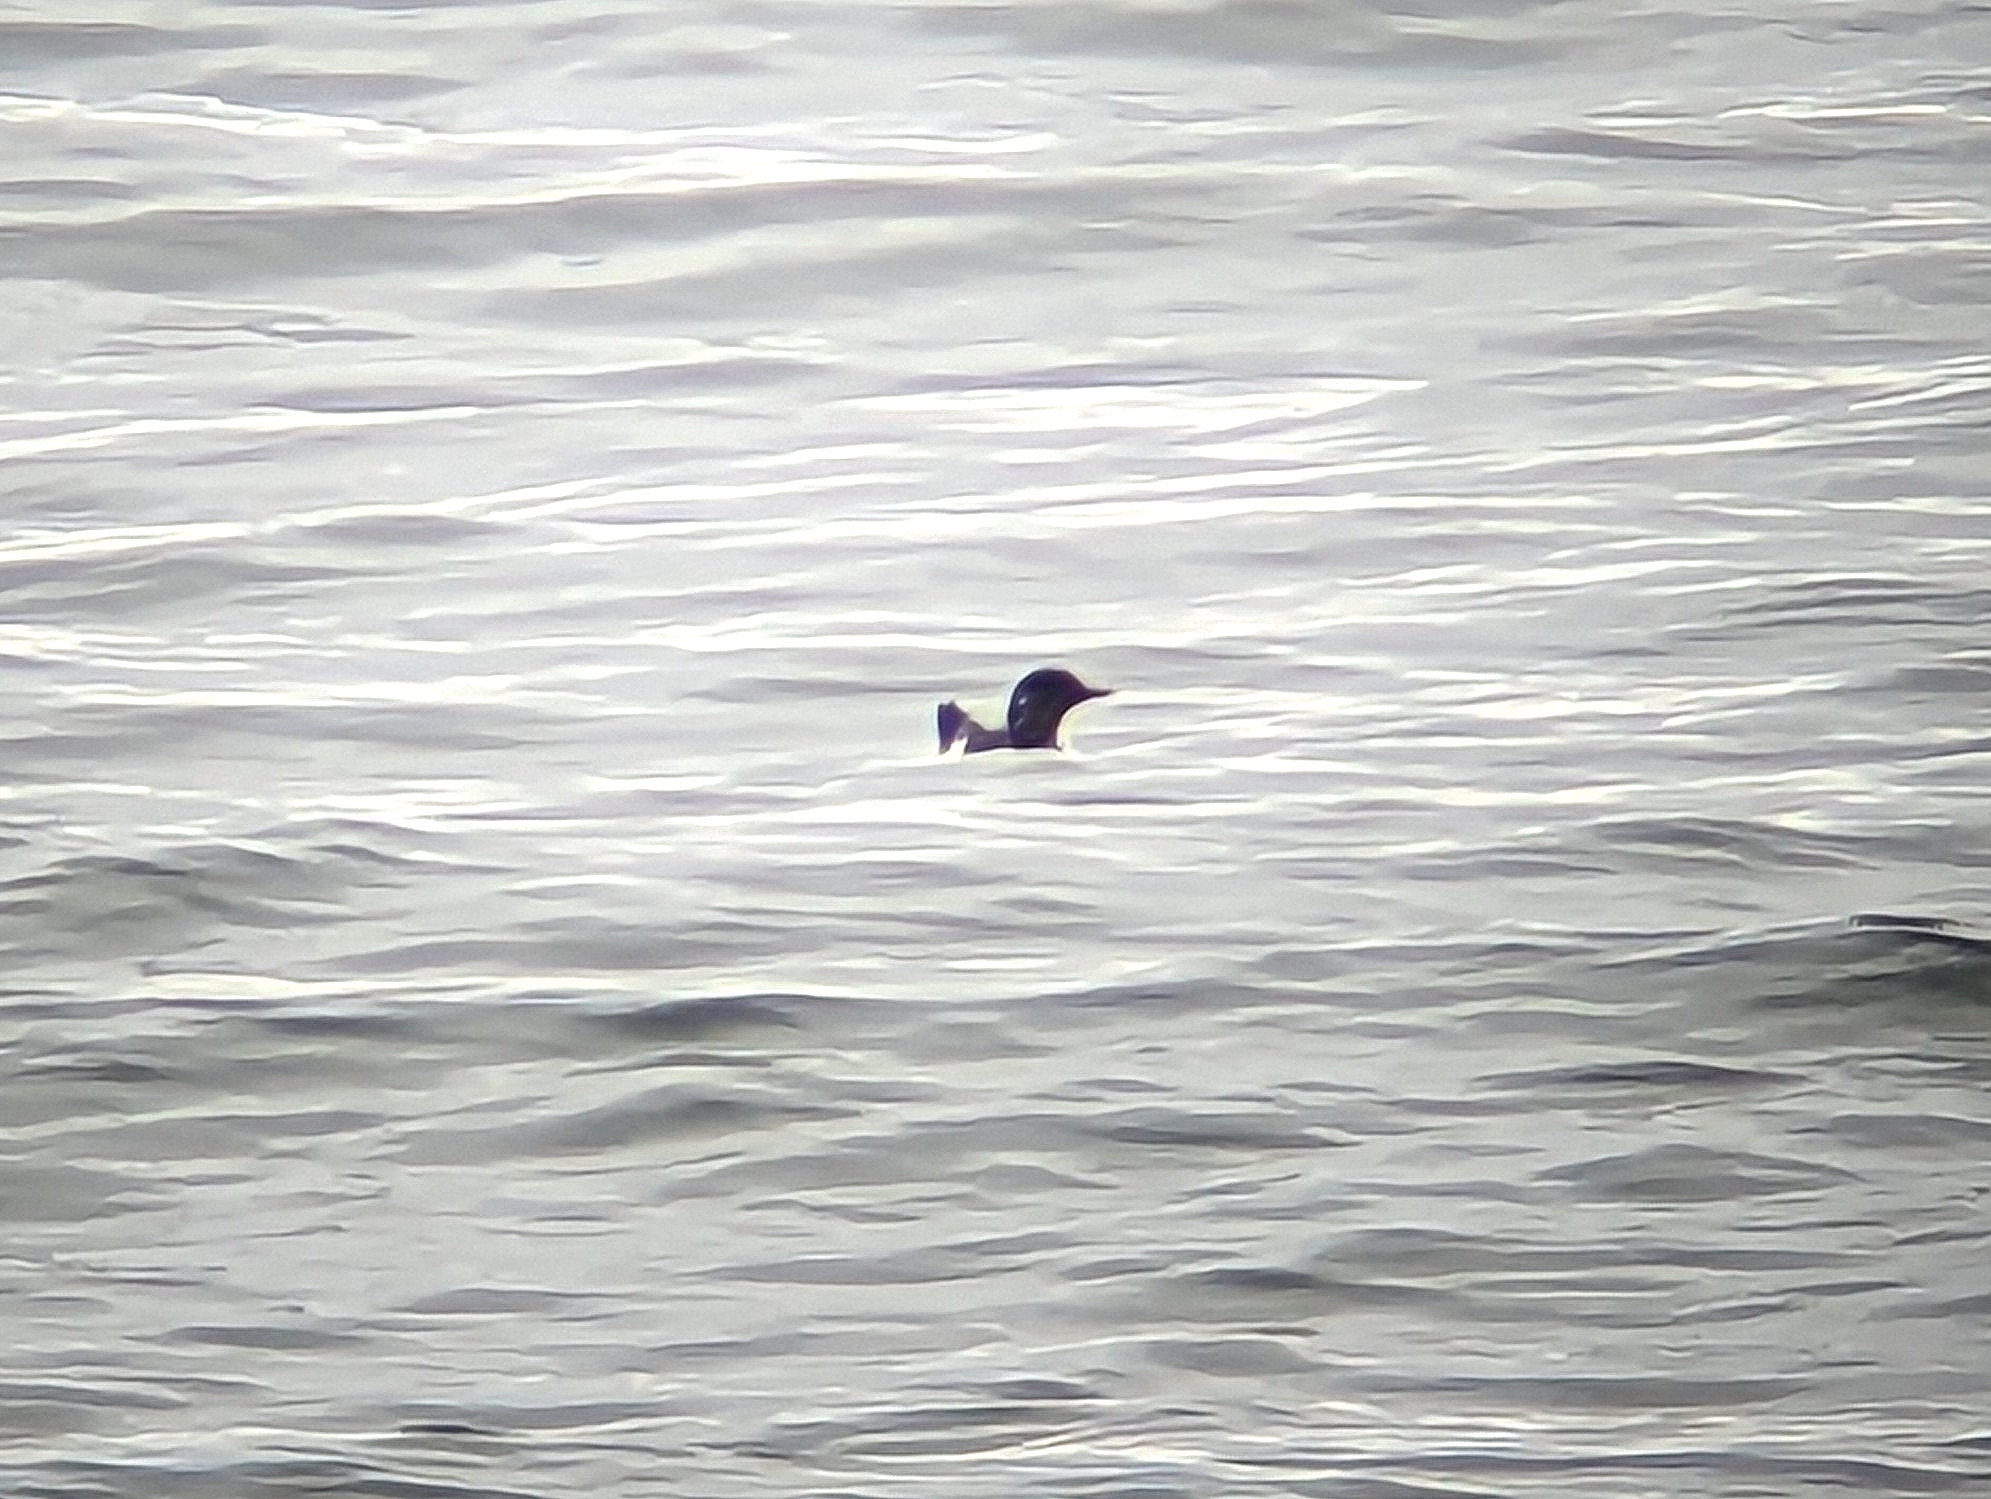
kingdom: Animalia
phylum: Chordata
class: Aves
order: Charadriiformes
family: Alcidae
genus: Cepphus
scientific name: Cepphus grylle
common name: Black guillemot
